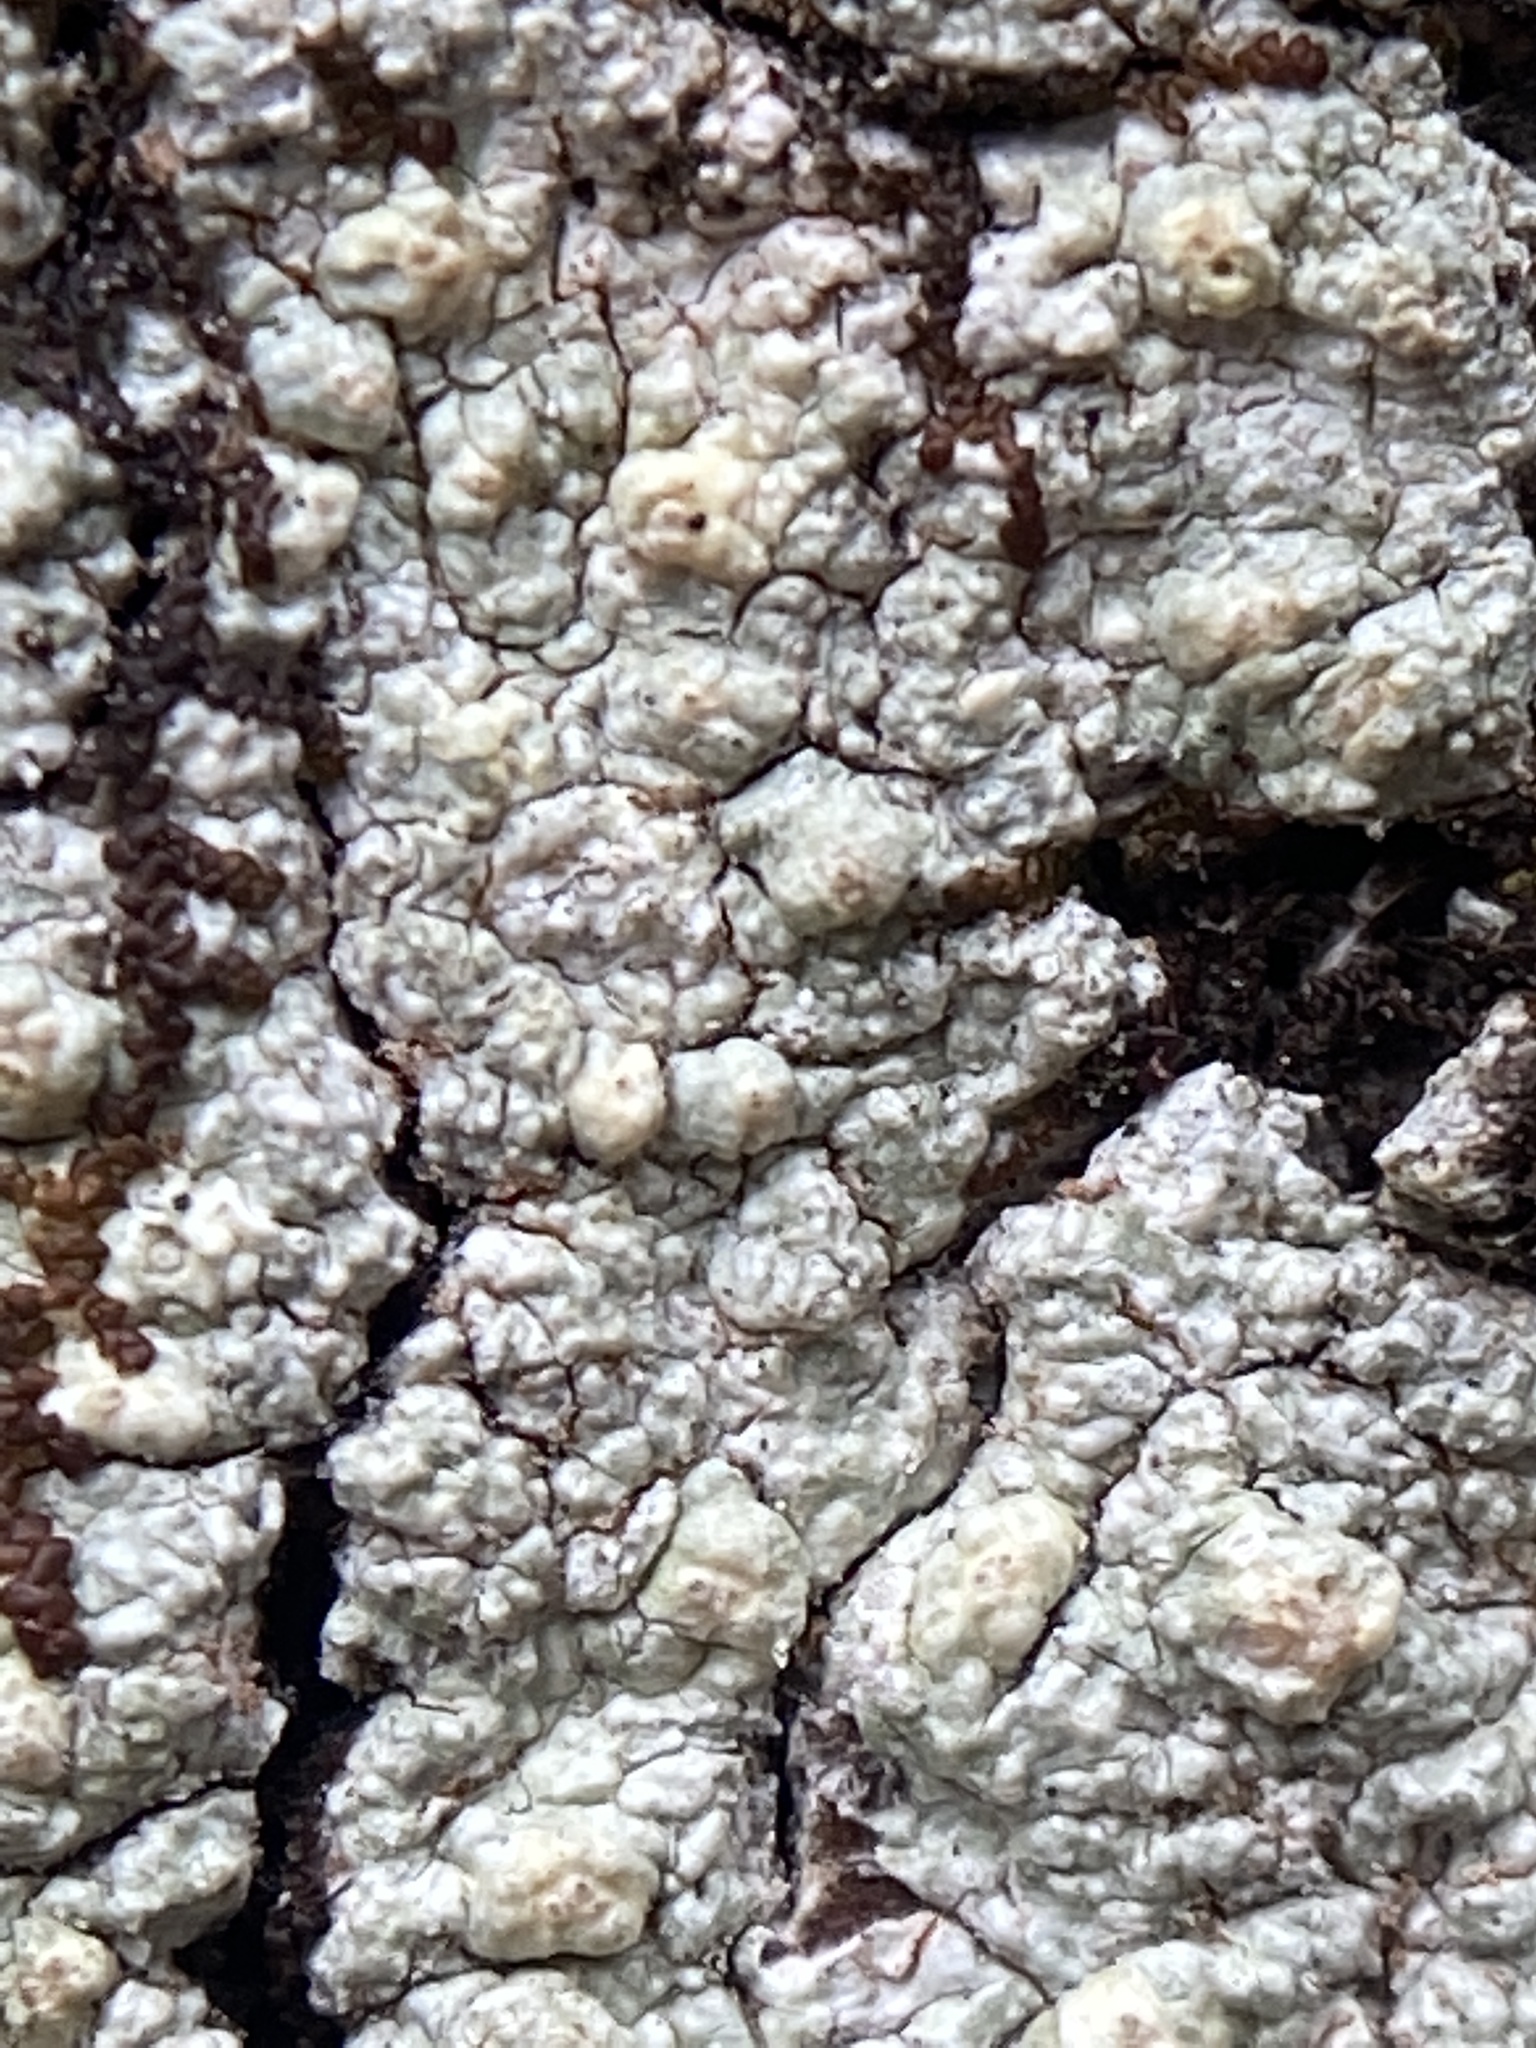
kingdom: Fungi
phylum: Ascomycota
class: Lecanoromycetes
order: Pertusariales
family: Pertusariaceae
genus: Pertusaria
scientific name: Pertusaria texana
